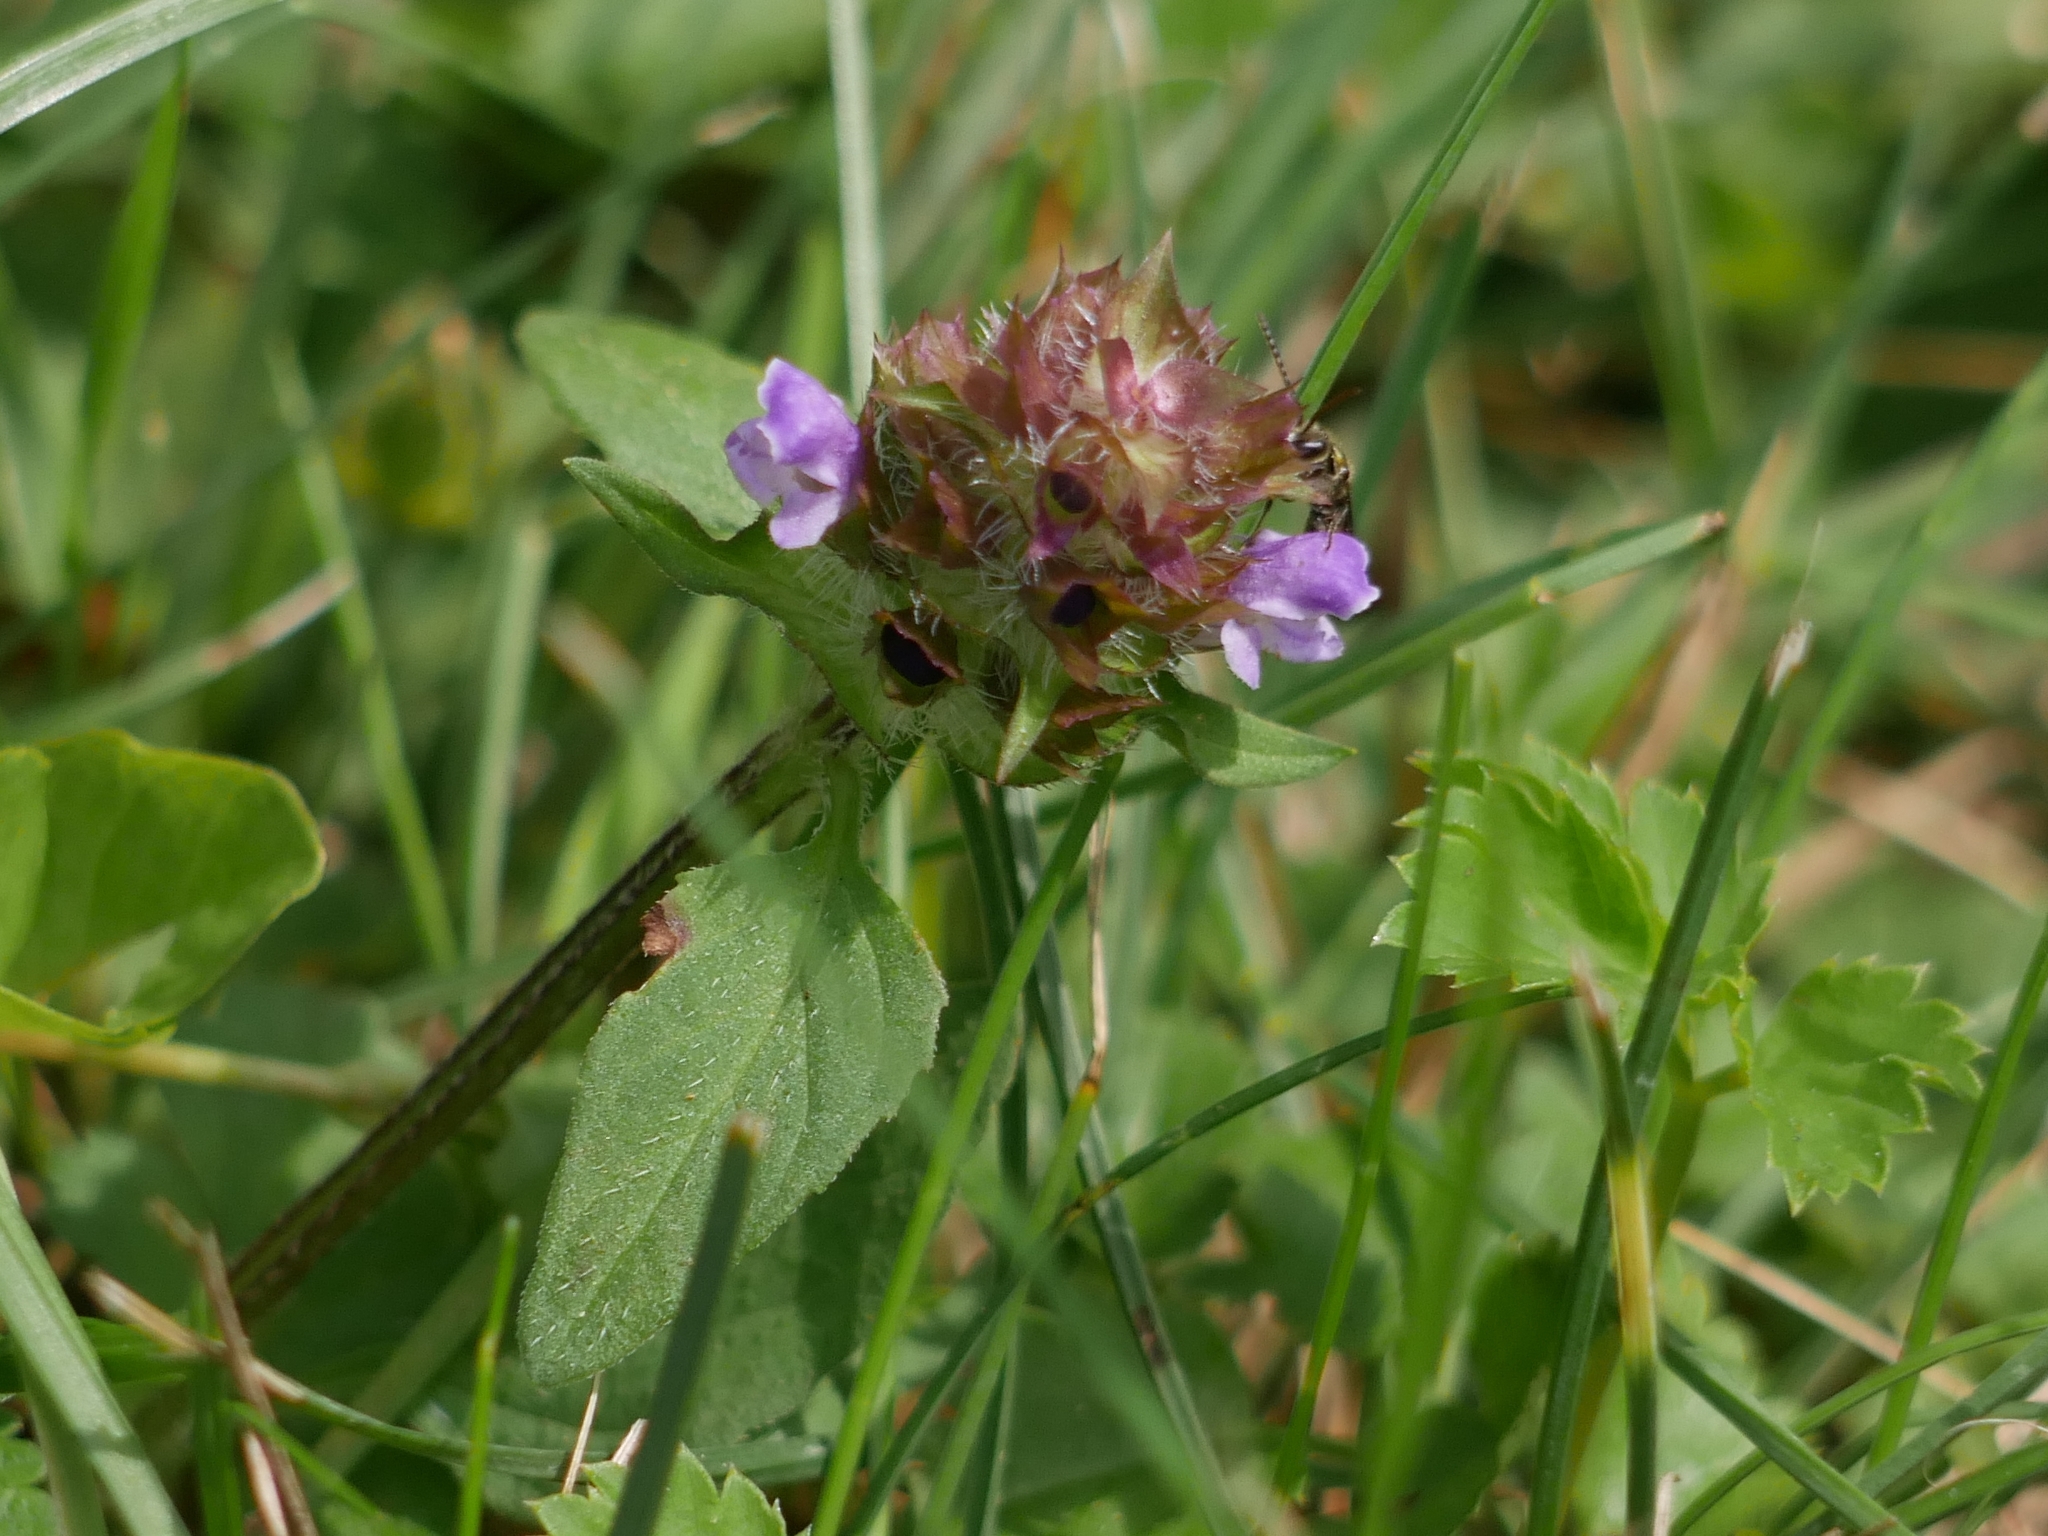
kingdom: Plantae
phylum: Tracheophyta
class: Magnoliopsida
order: Lamiales
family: Lamiaceae
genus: Prunella
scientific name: Prunella vulgaris
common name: Heal-all
